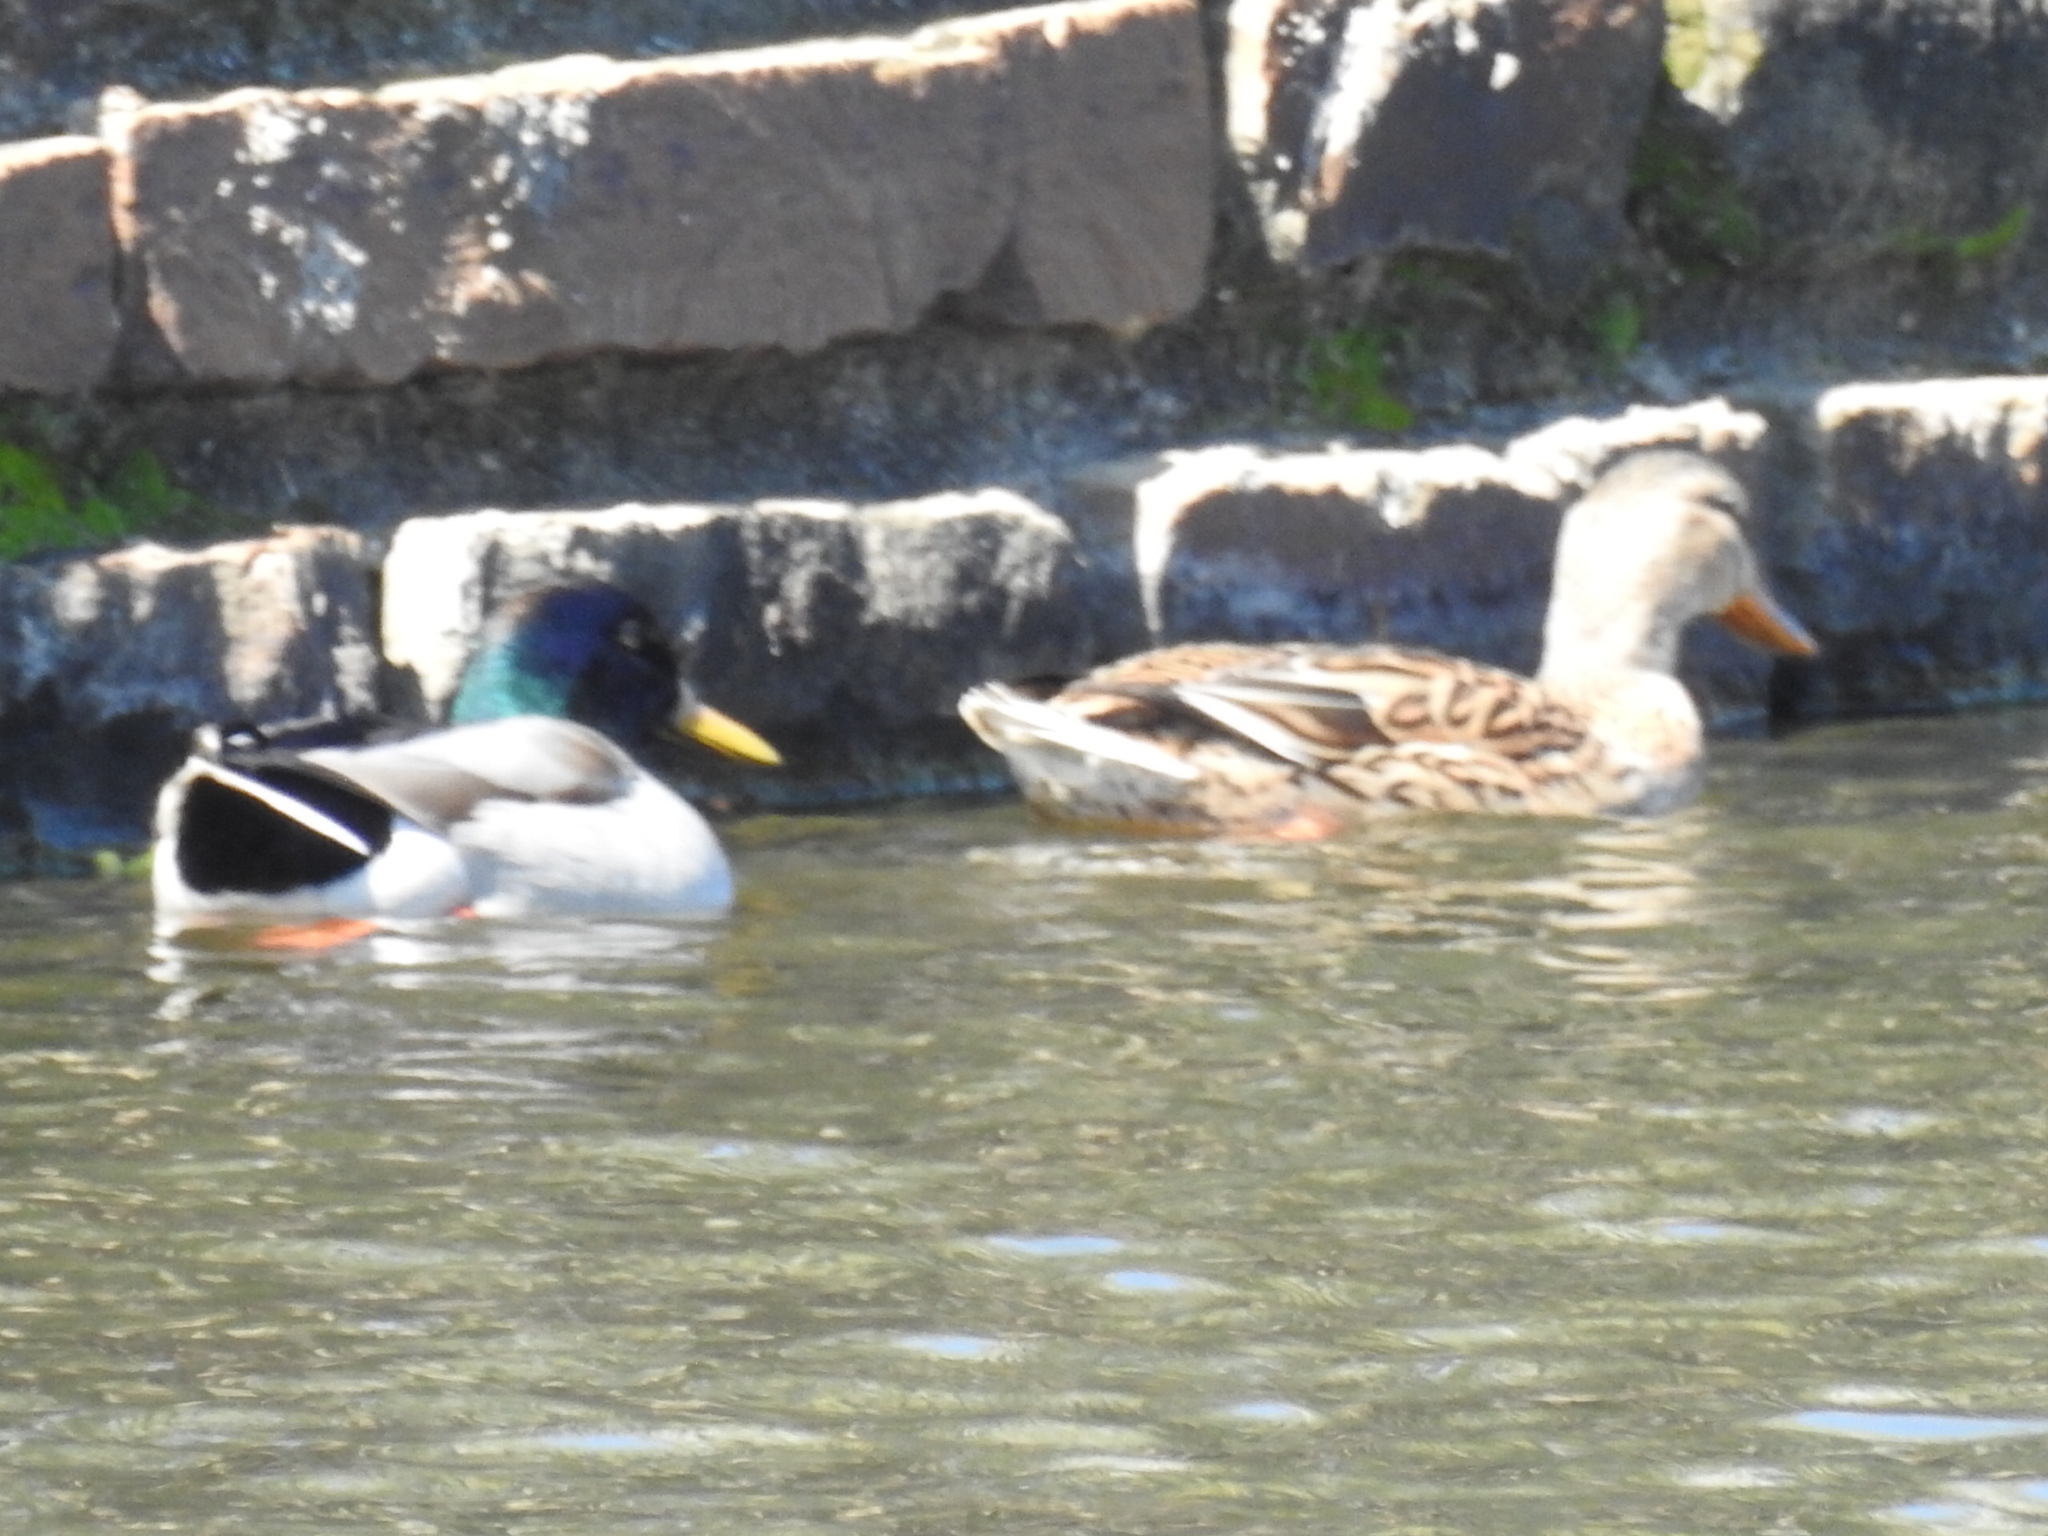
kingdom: Animalia
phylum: Chordata
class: Aves
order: Anseriformes
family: Anatidae
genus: Anas
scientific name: Anas platyrhynchos
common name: Mallard
